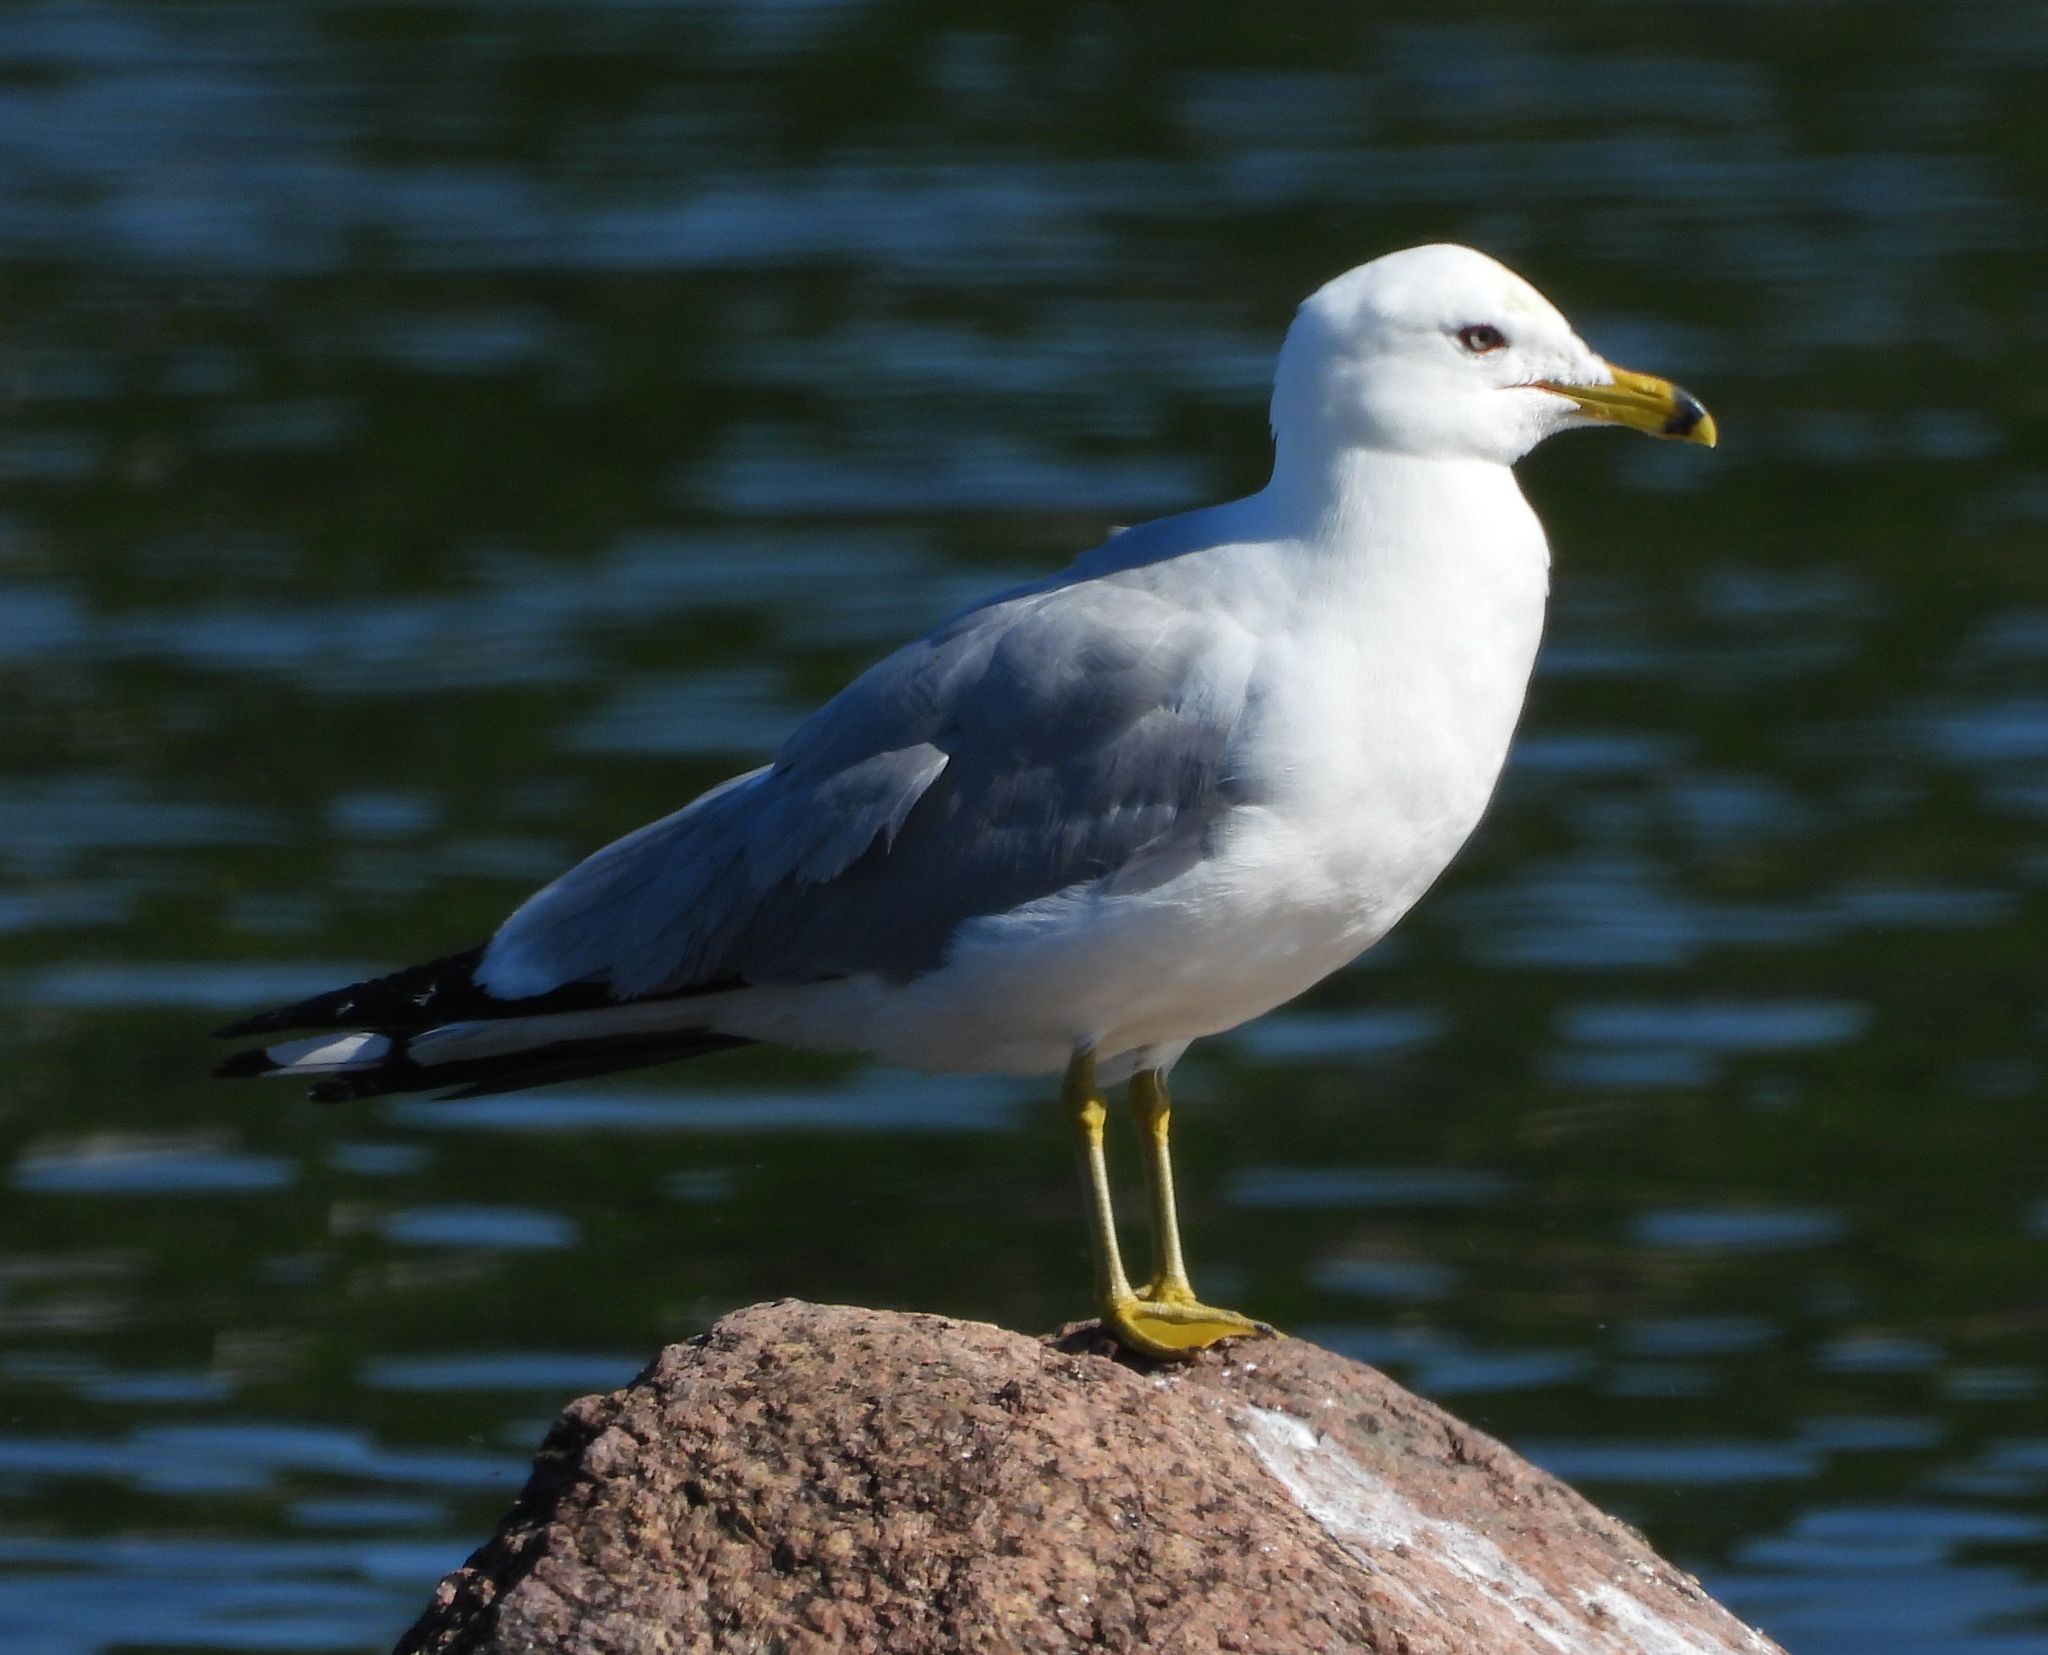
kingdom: Animalia
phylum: Chordata
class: Aves
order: Charadriiformes
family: Laridae
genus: Larus
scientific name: Larus delawarensis
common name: Ring-billed gull
